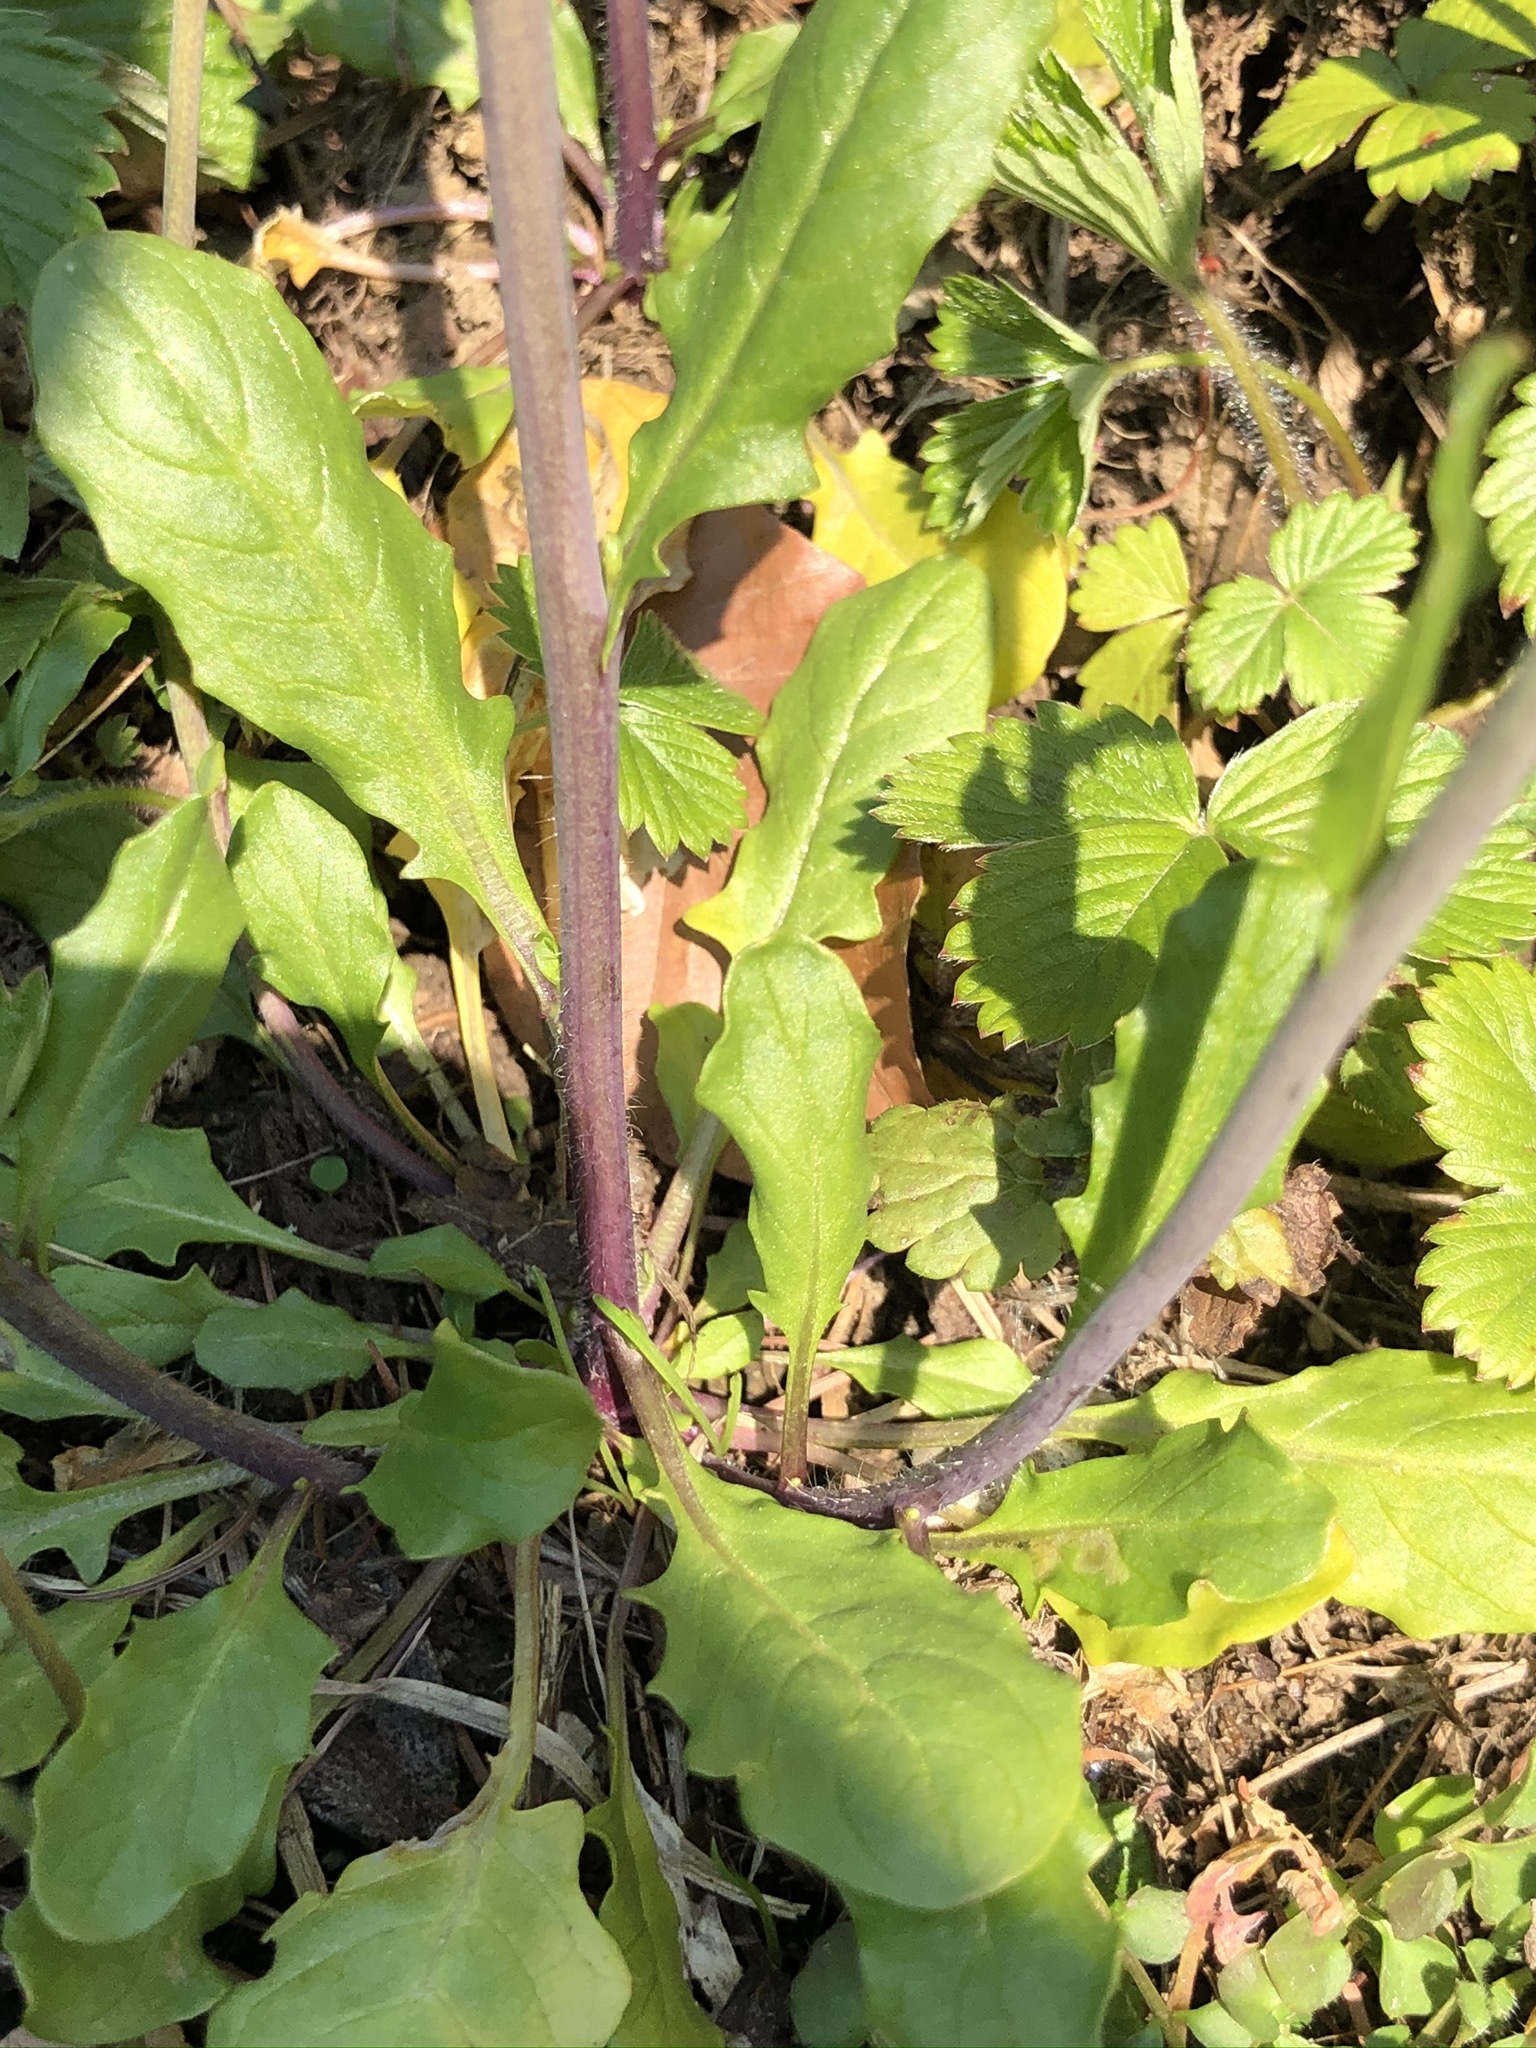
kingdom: Plantae
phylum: Tracheophyta
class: Magnoliopsida
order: Brassicales
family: Brassicaceae
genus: Mummenhoffia
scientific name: Mummenhoffia alliacea
